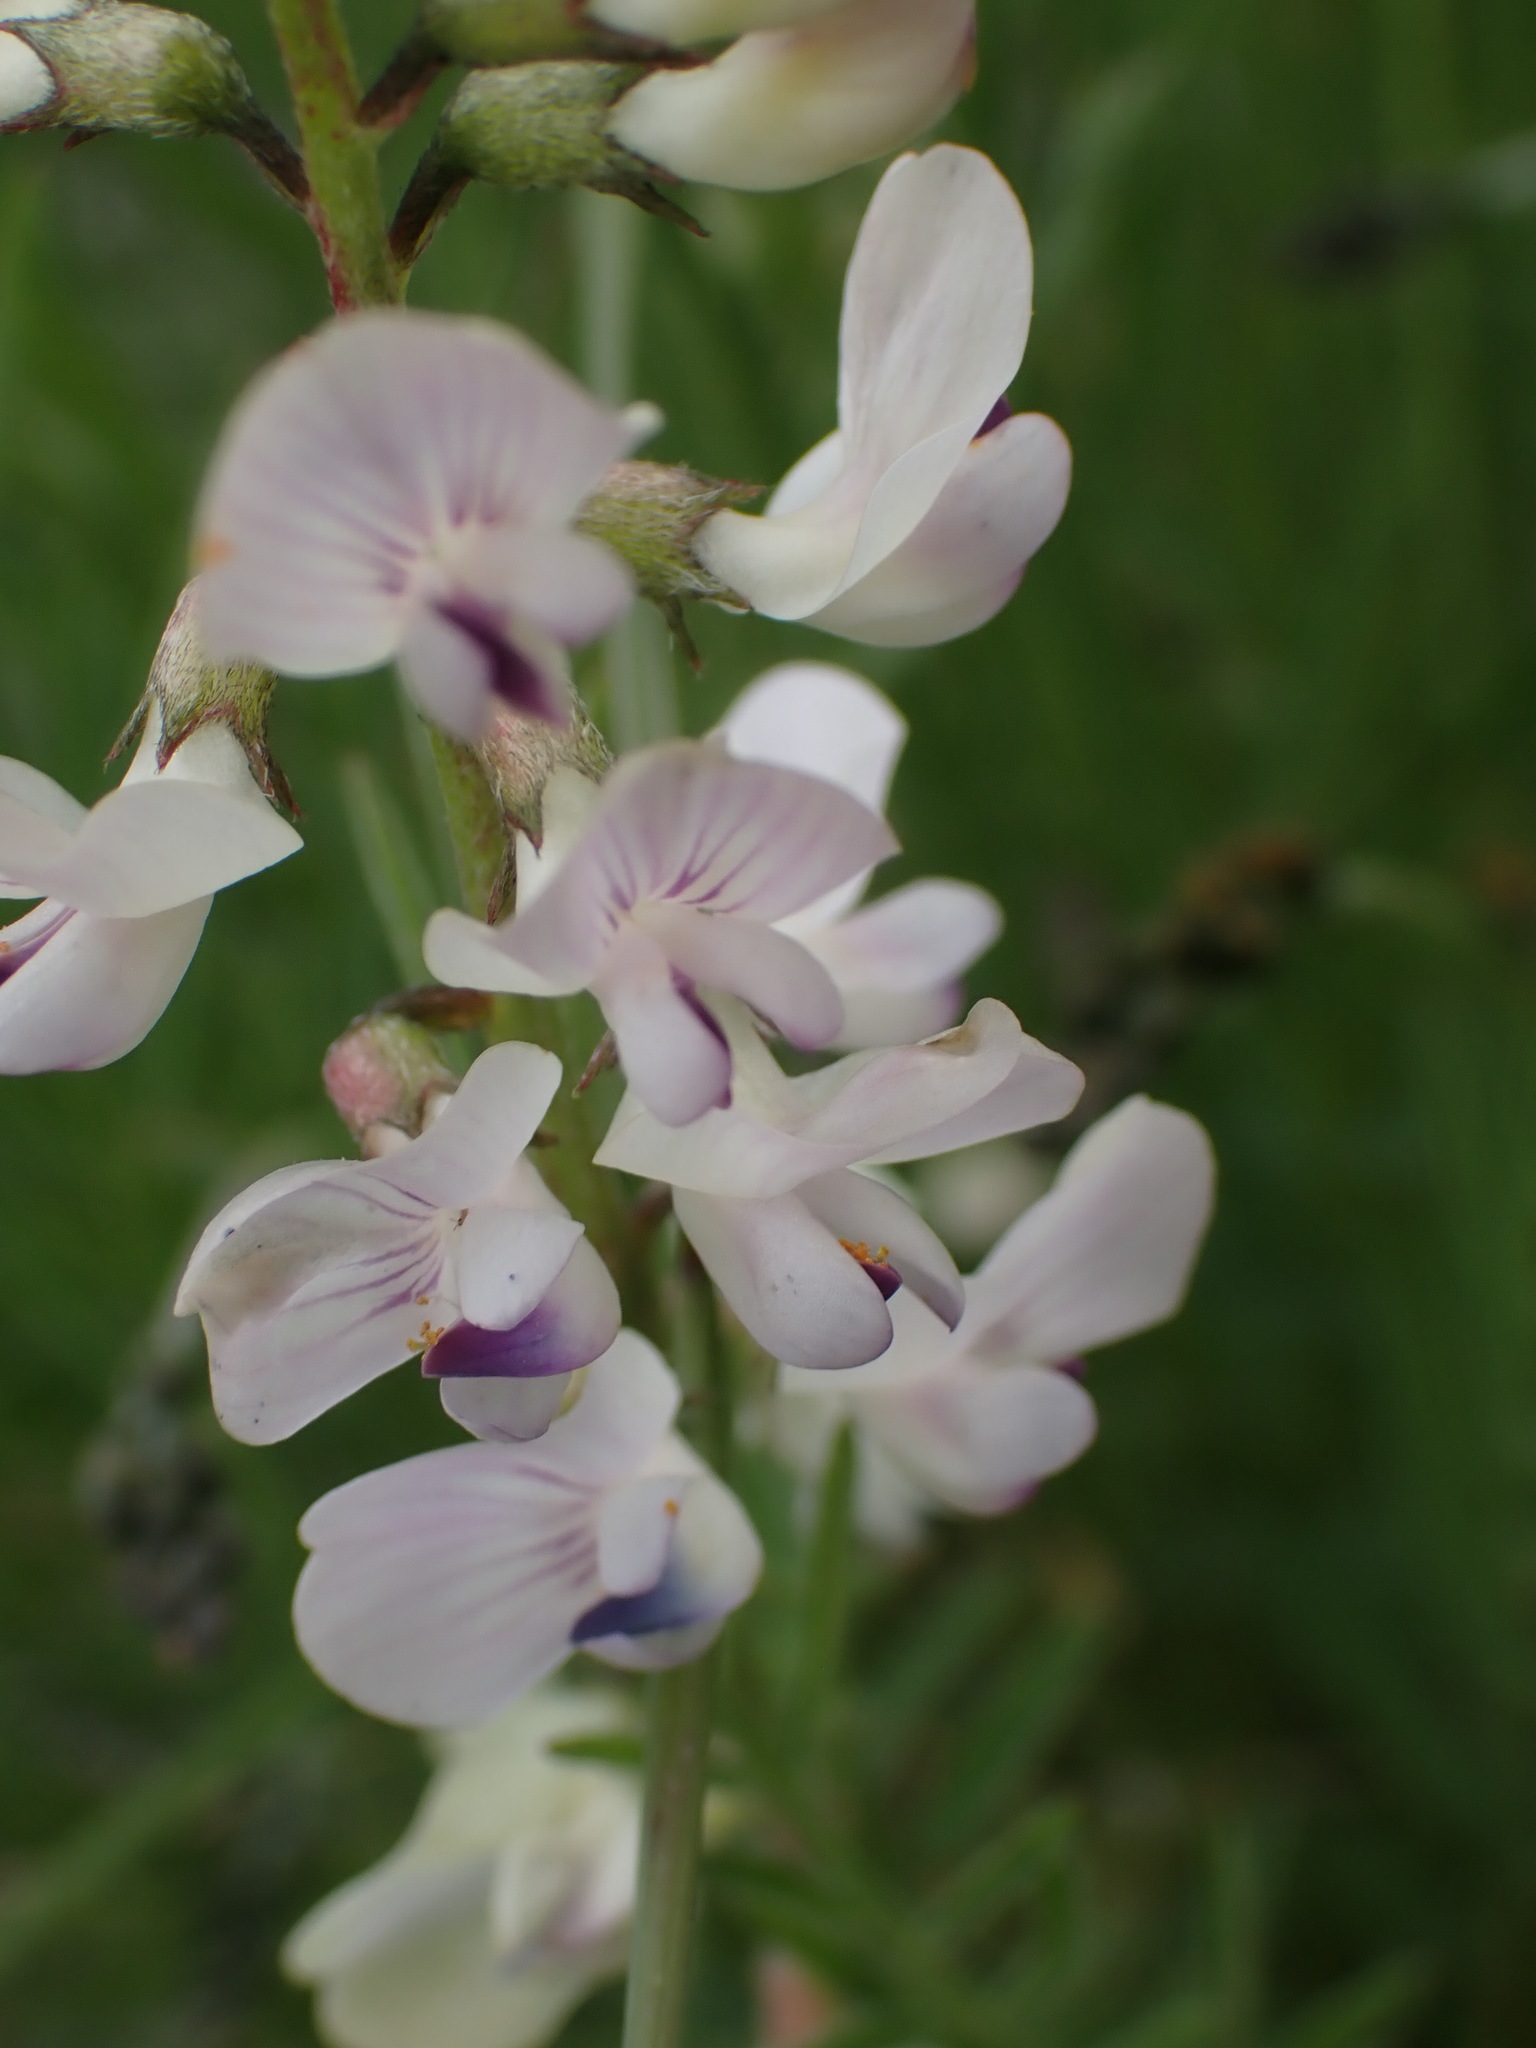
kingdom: Plantae
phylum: Tracheophyta
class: Magnoliopsida
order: Fabales
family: Fabaceae
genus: Astragalus
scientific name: Astragalus miser
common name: Timber milkvetch
